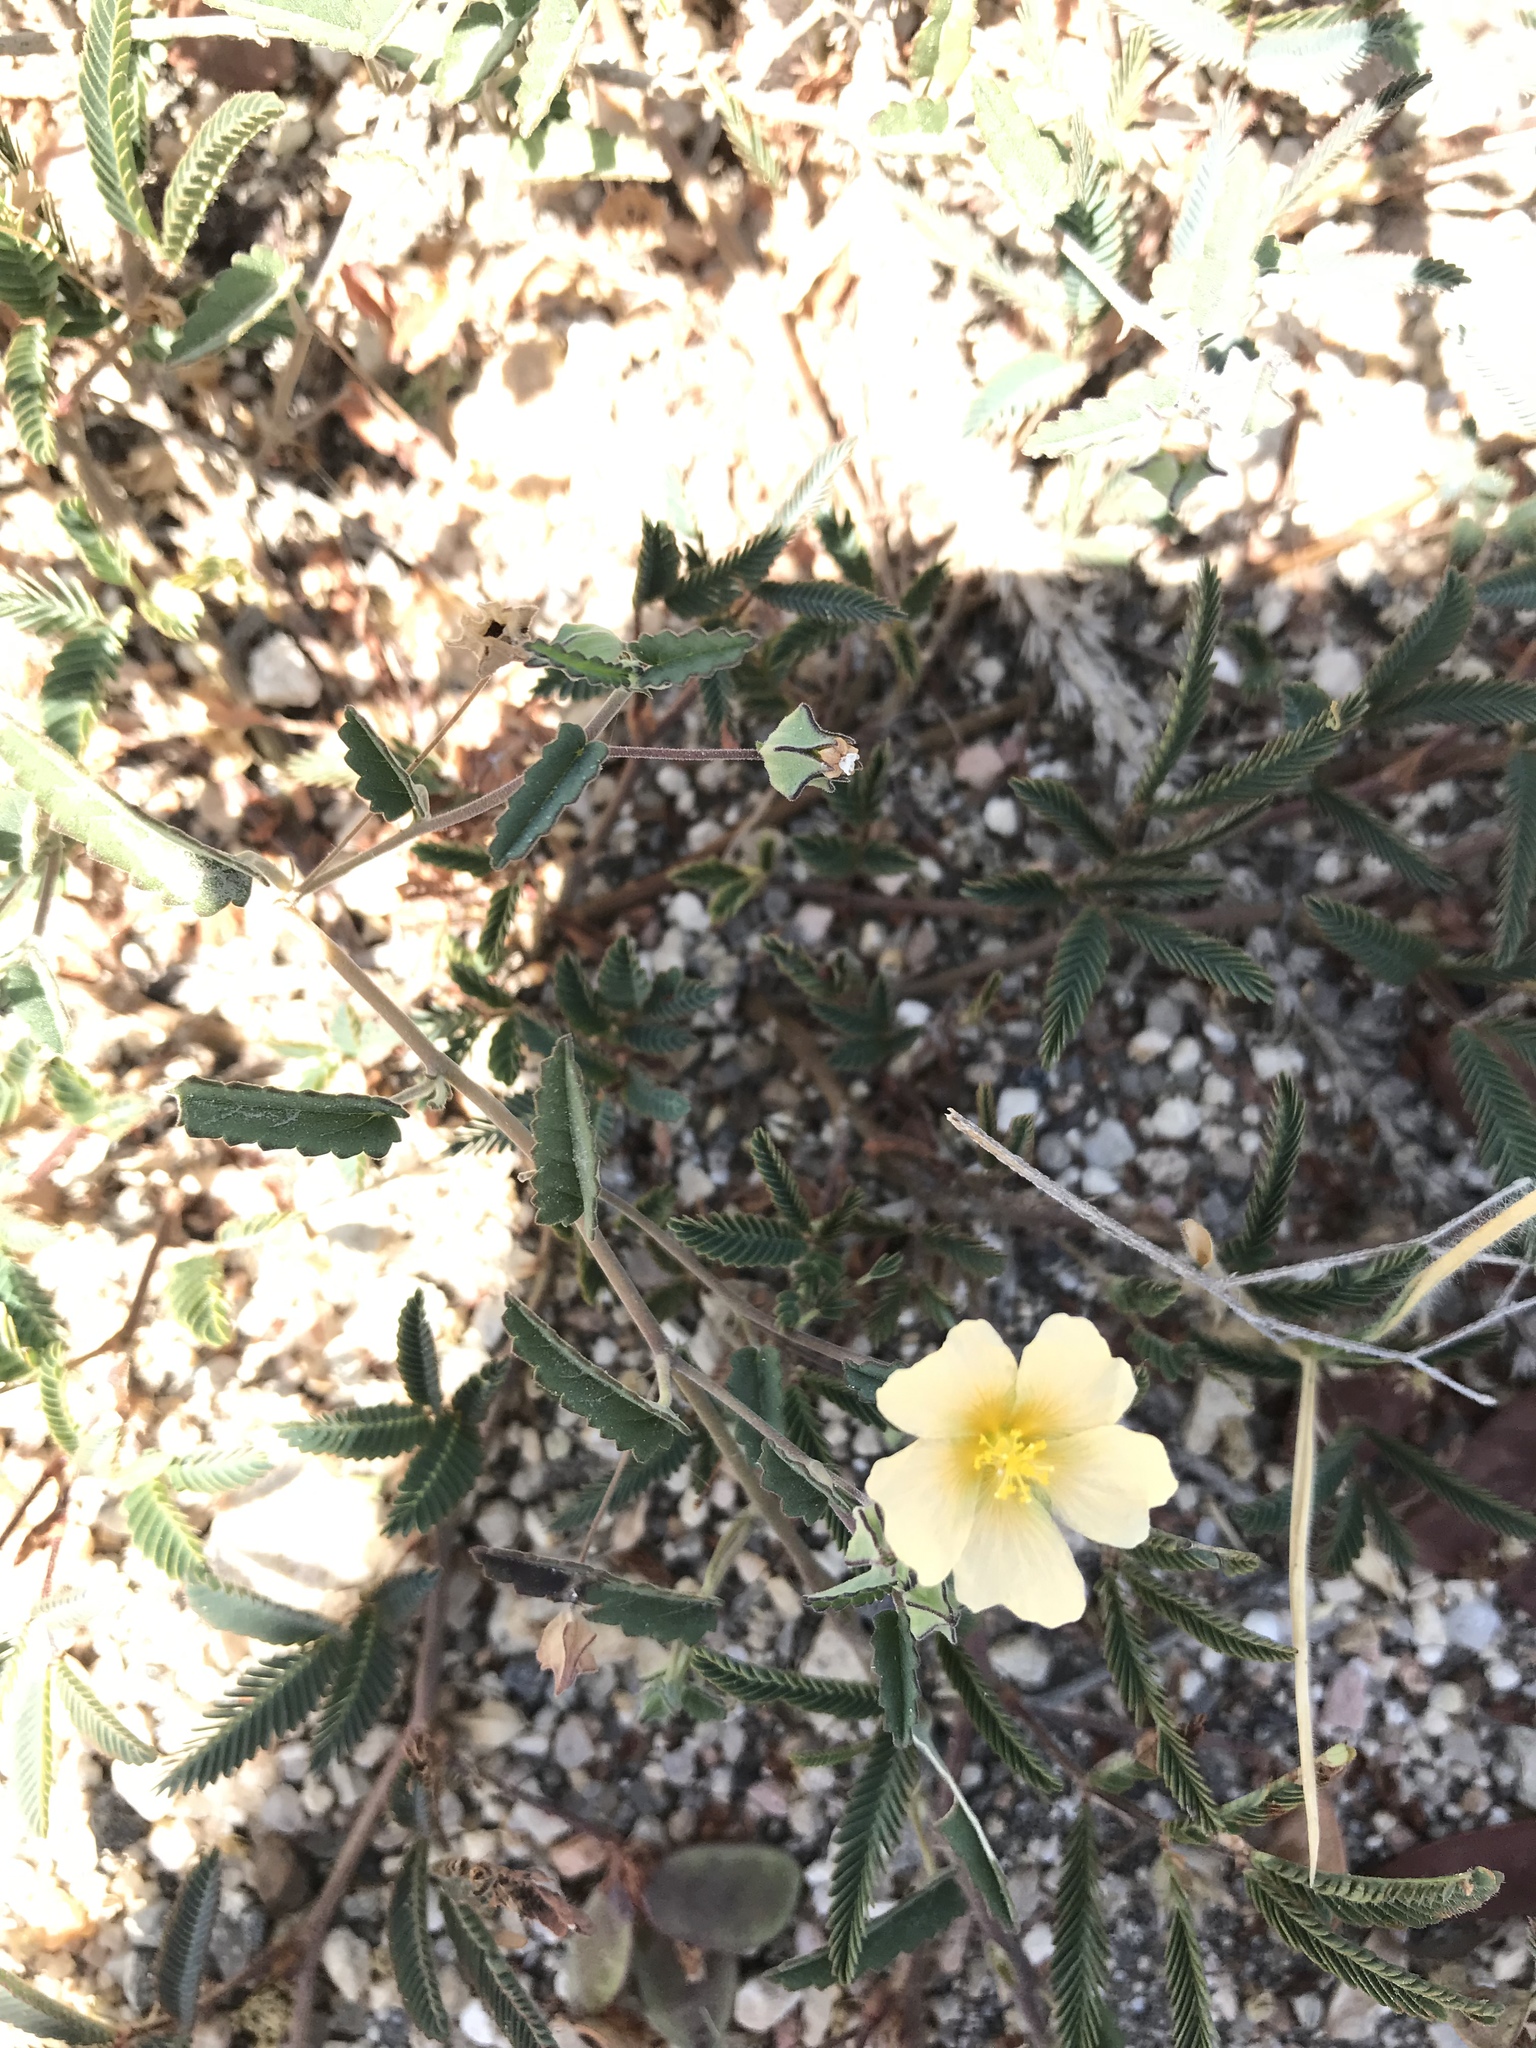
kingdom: Plantae
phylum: Tracheophyta
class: Magnoliopsida
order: Malvales
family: Malvaceae
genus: Sida
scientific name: Sida abutilifolia
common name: Spreading fanpetals
